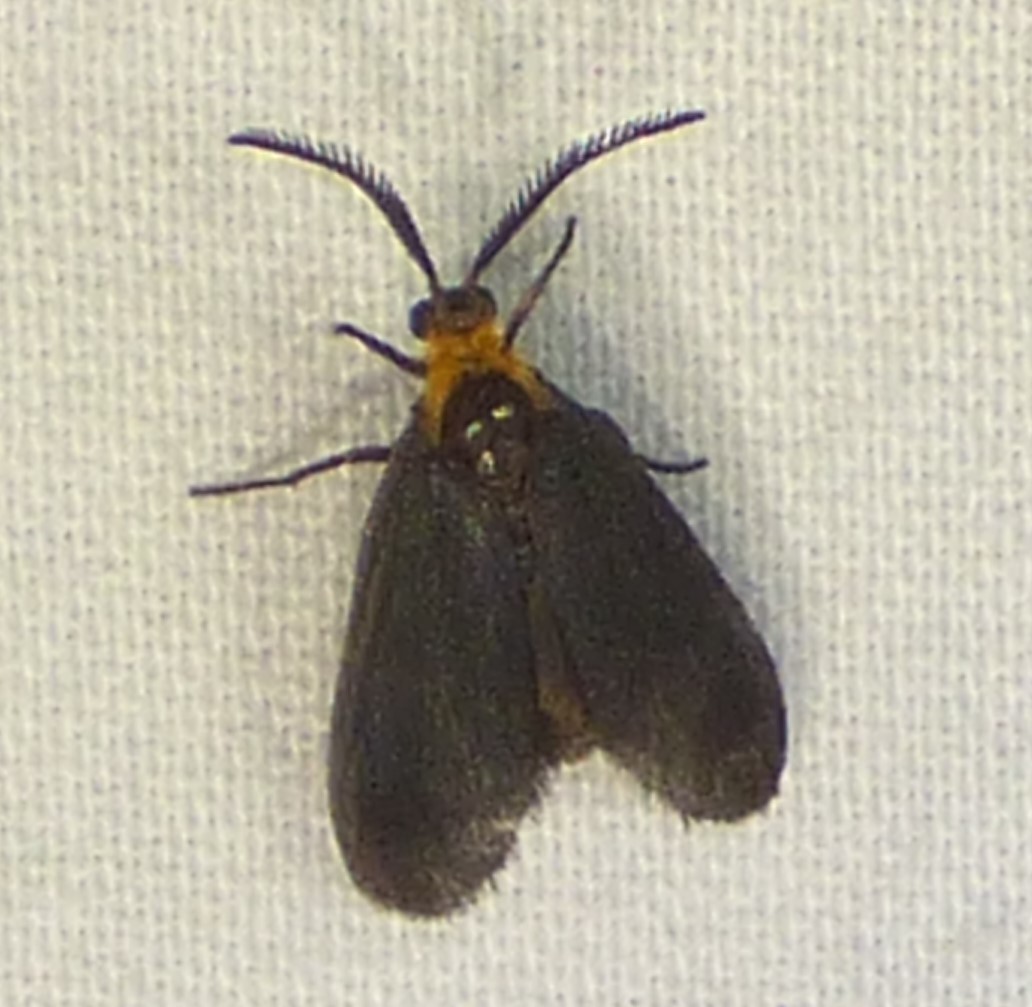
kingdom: Animalia
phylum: Arthropoda
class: Insecta
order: Lepidoptera
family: Zygaenidae
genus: Acoloithus
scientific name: Acoloithus falsarius
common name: Clemens' false skeletonizer
